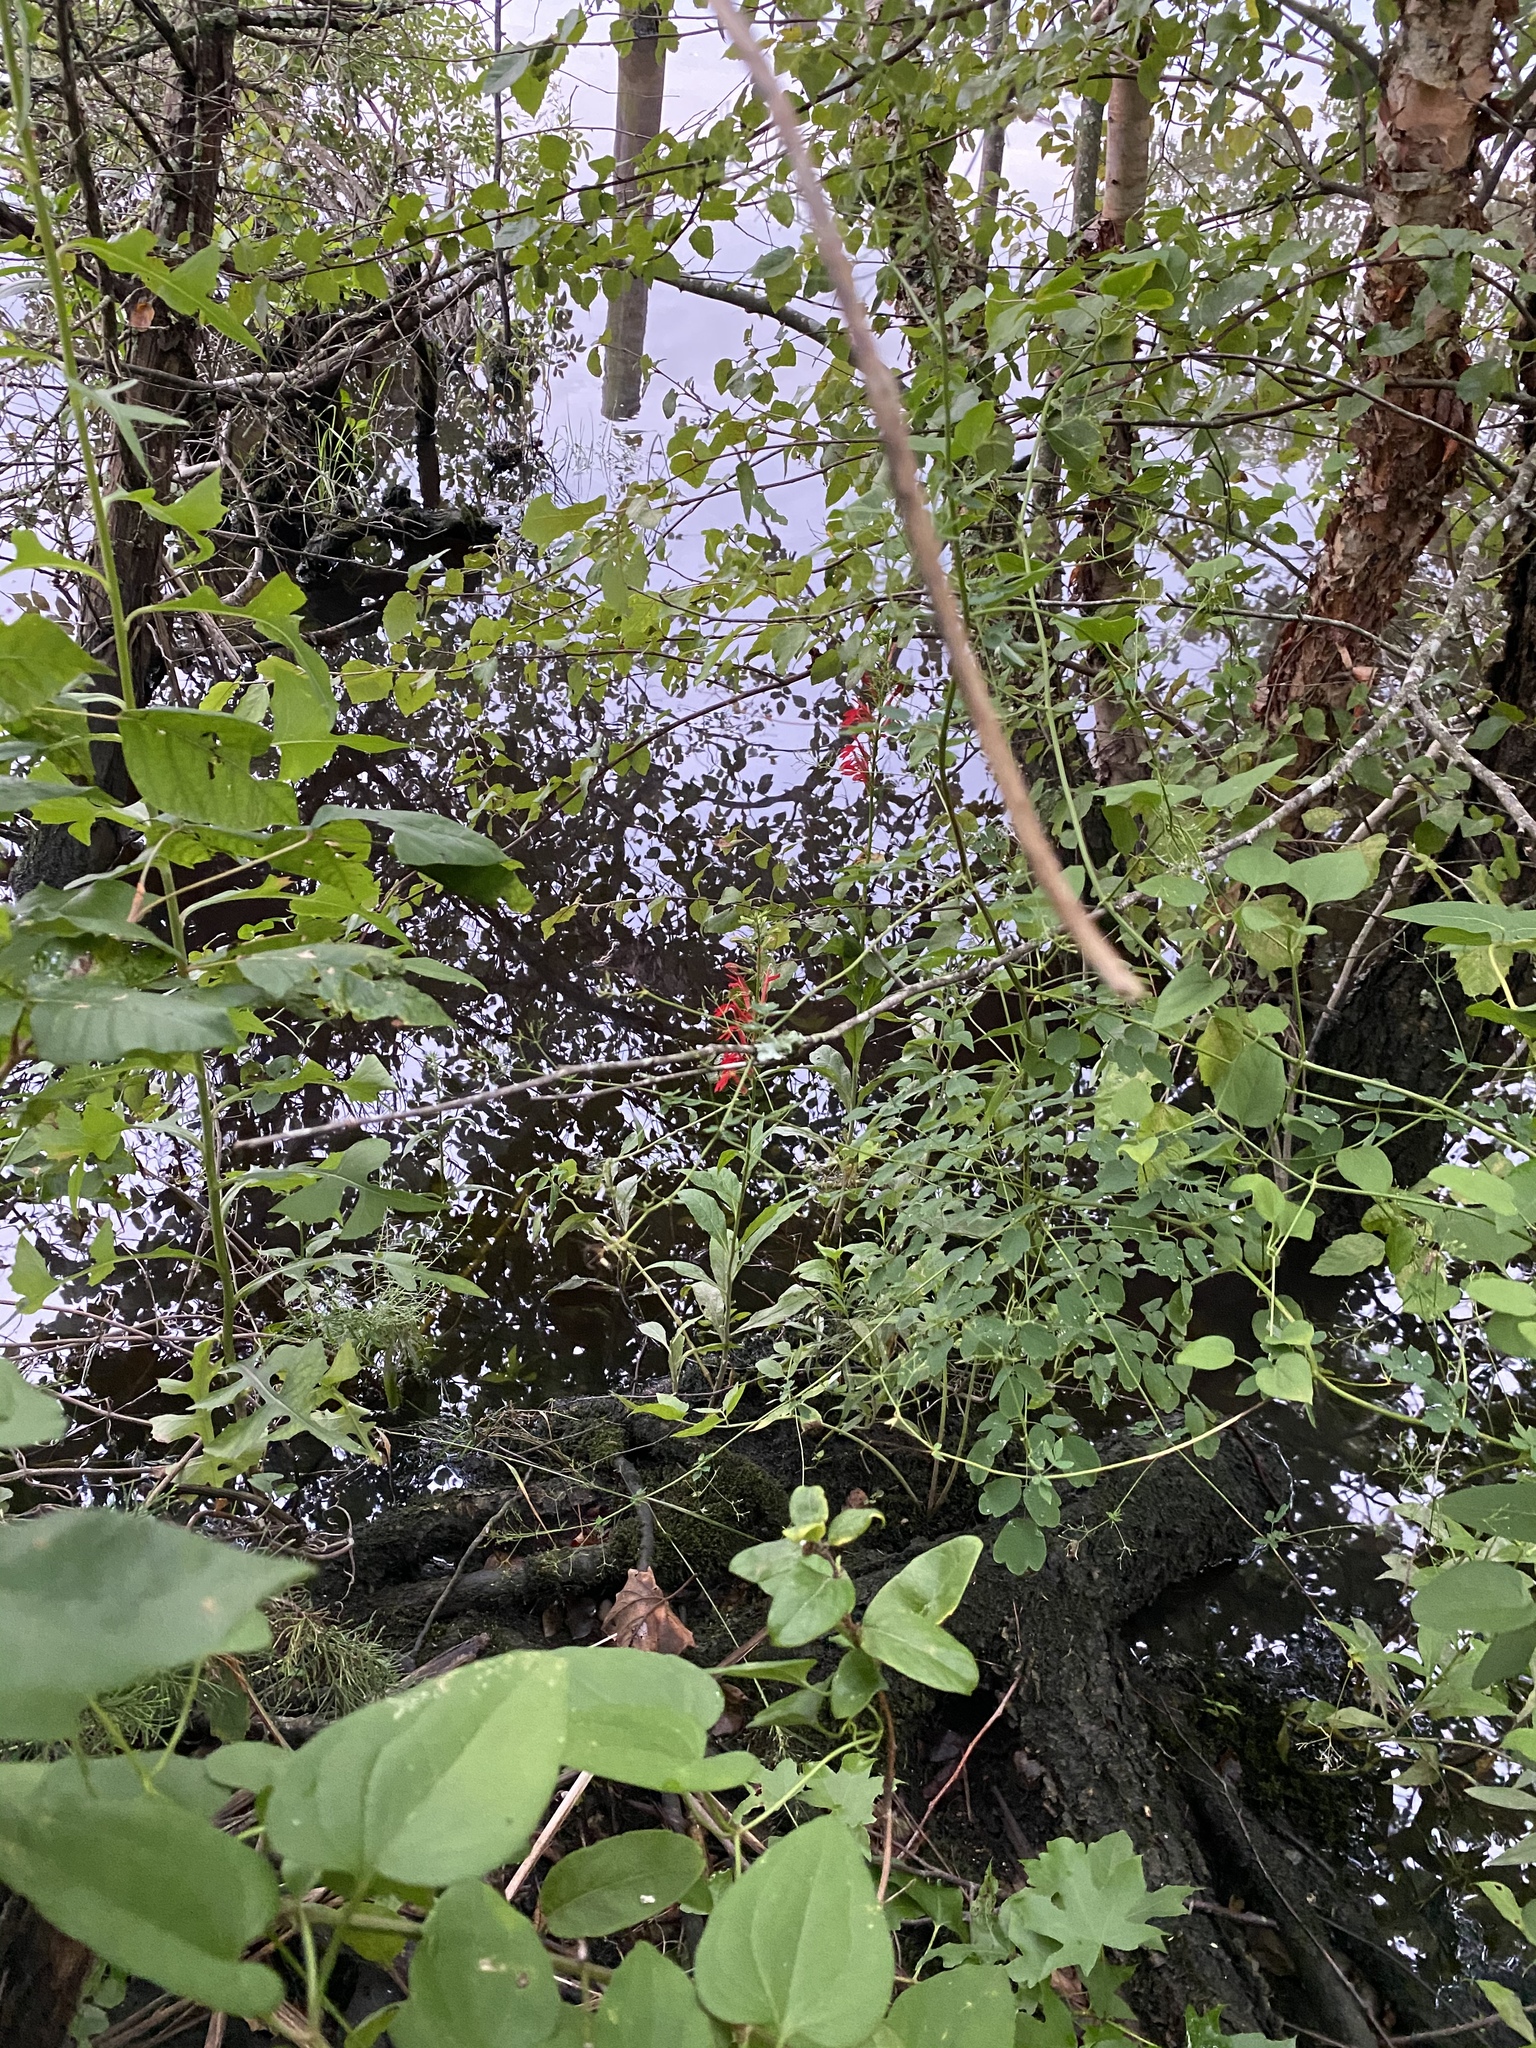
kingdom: Plantae
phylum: Tracheophyta
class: Magnoliopsida
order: Asterales
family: Campanulaceae
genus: Lobelia
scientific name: Lobelia cardinalis
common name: Cardinal flower
